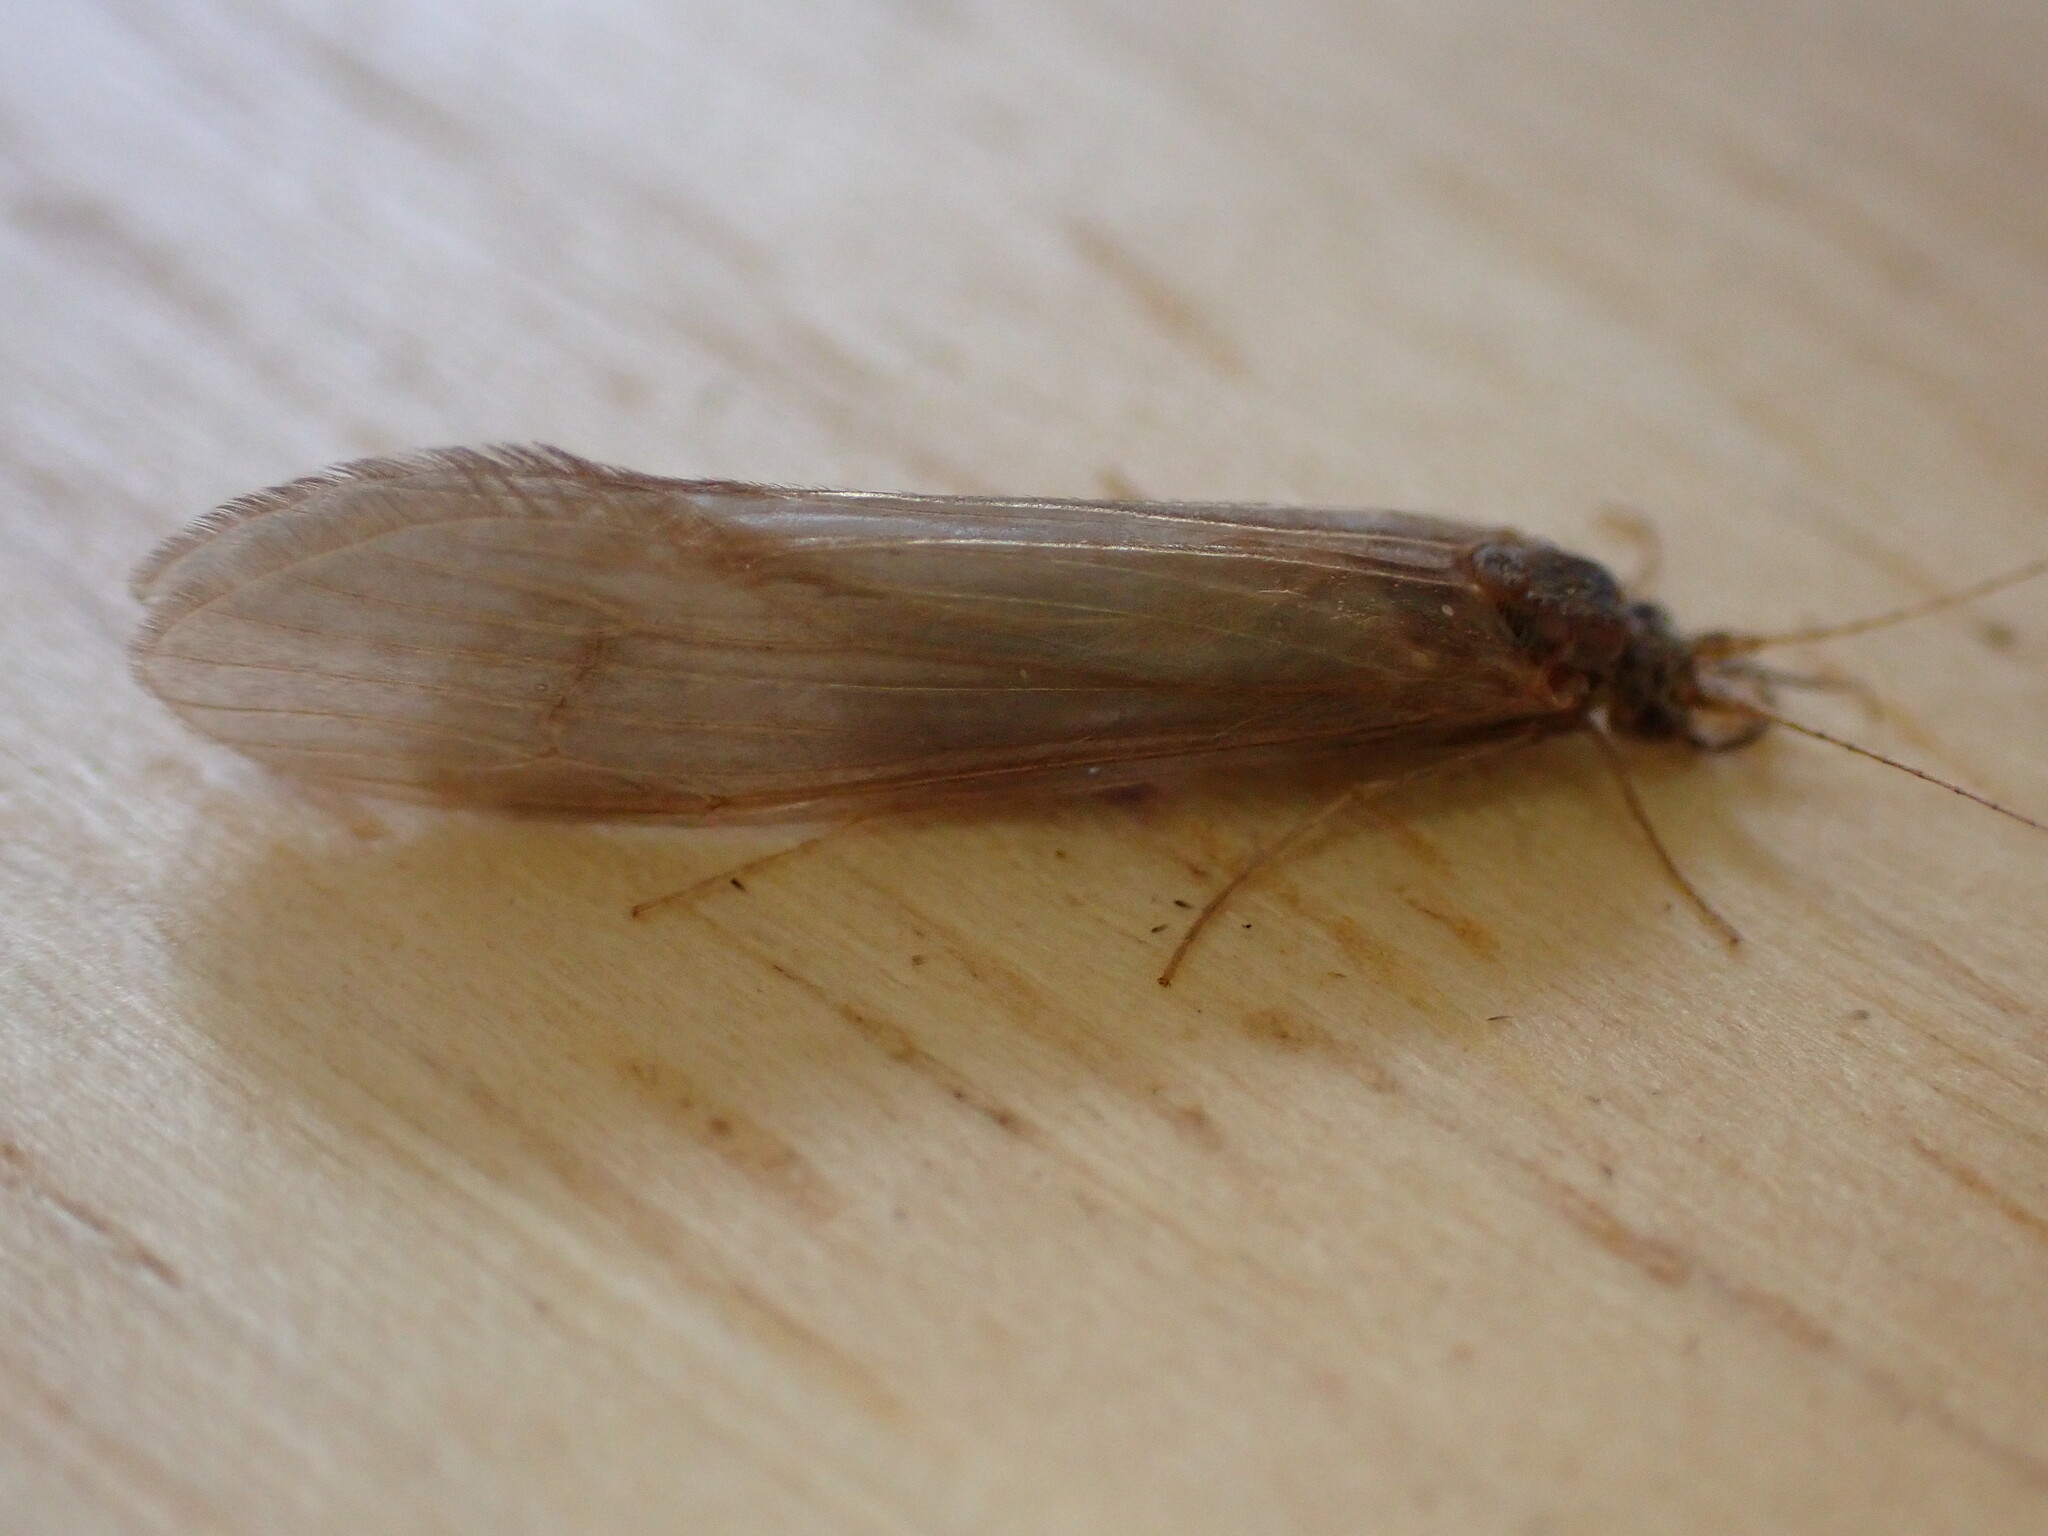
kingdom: Animalia
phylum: Arthropoda
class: Insecta
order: Trichoptera
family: Leptoceridae
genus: Oecetis
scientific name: Oecetis ochracea
